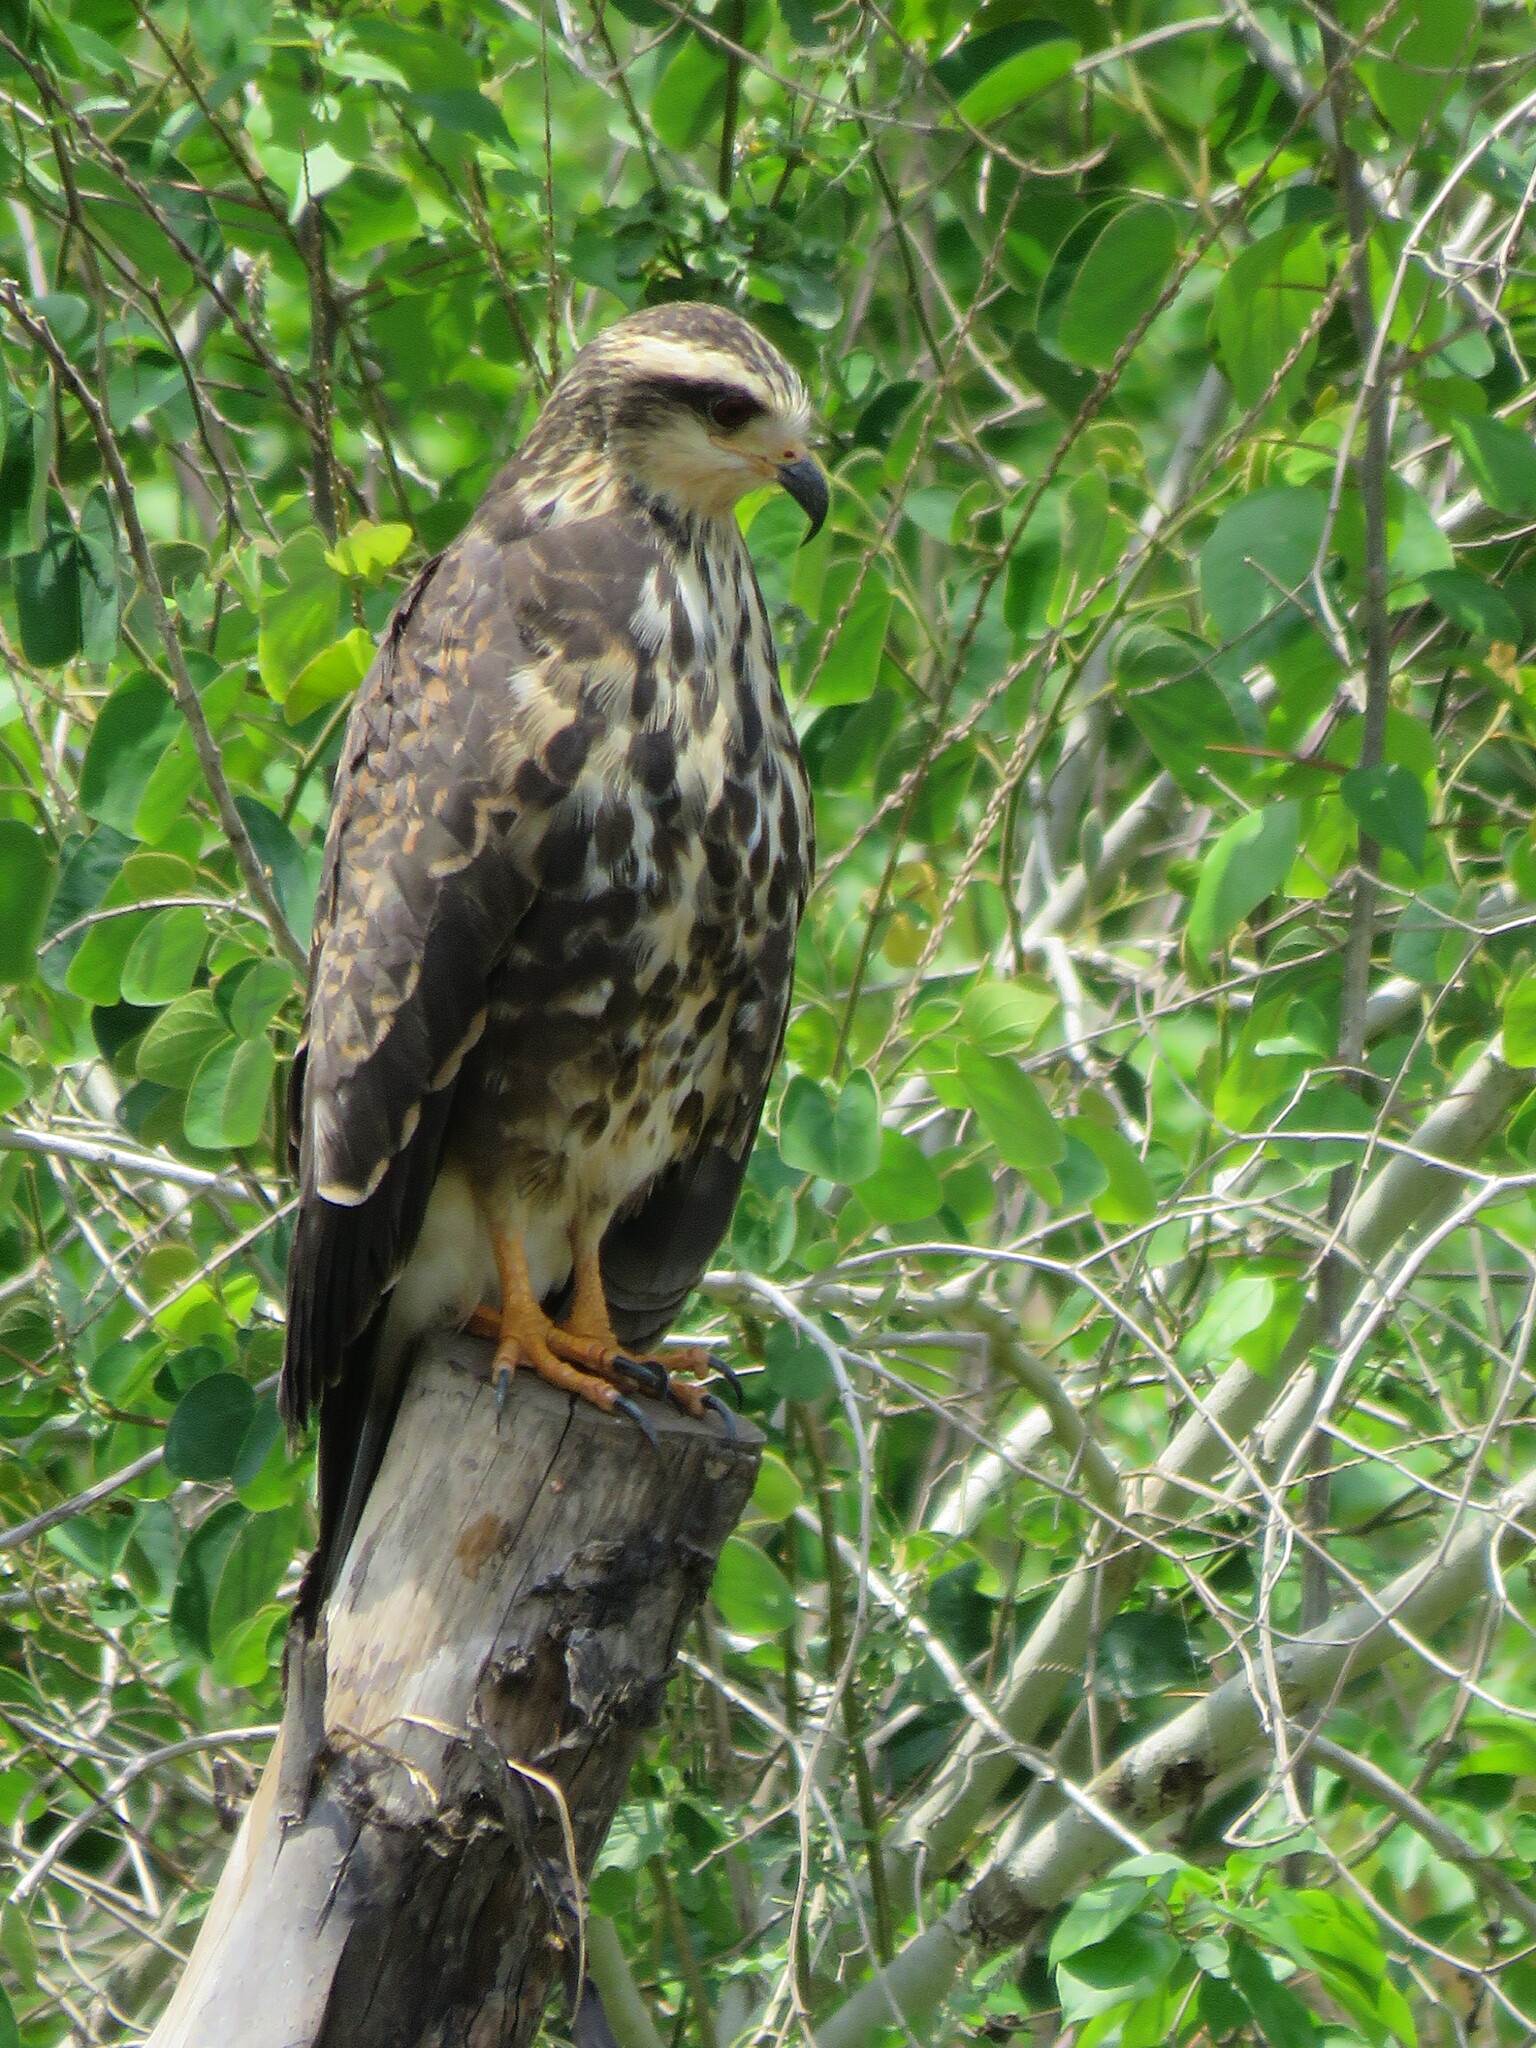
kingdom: Animalia
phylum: Chordata
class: Aves
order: Accipitriformes
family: Accipitridae
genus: Rostrhamus
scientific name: Rostrhamus sociabilis
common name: Snail kite
